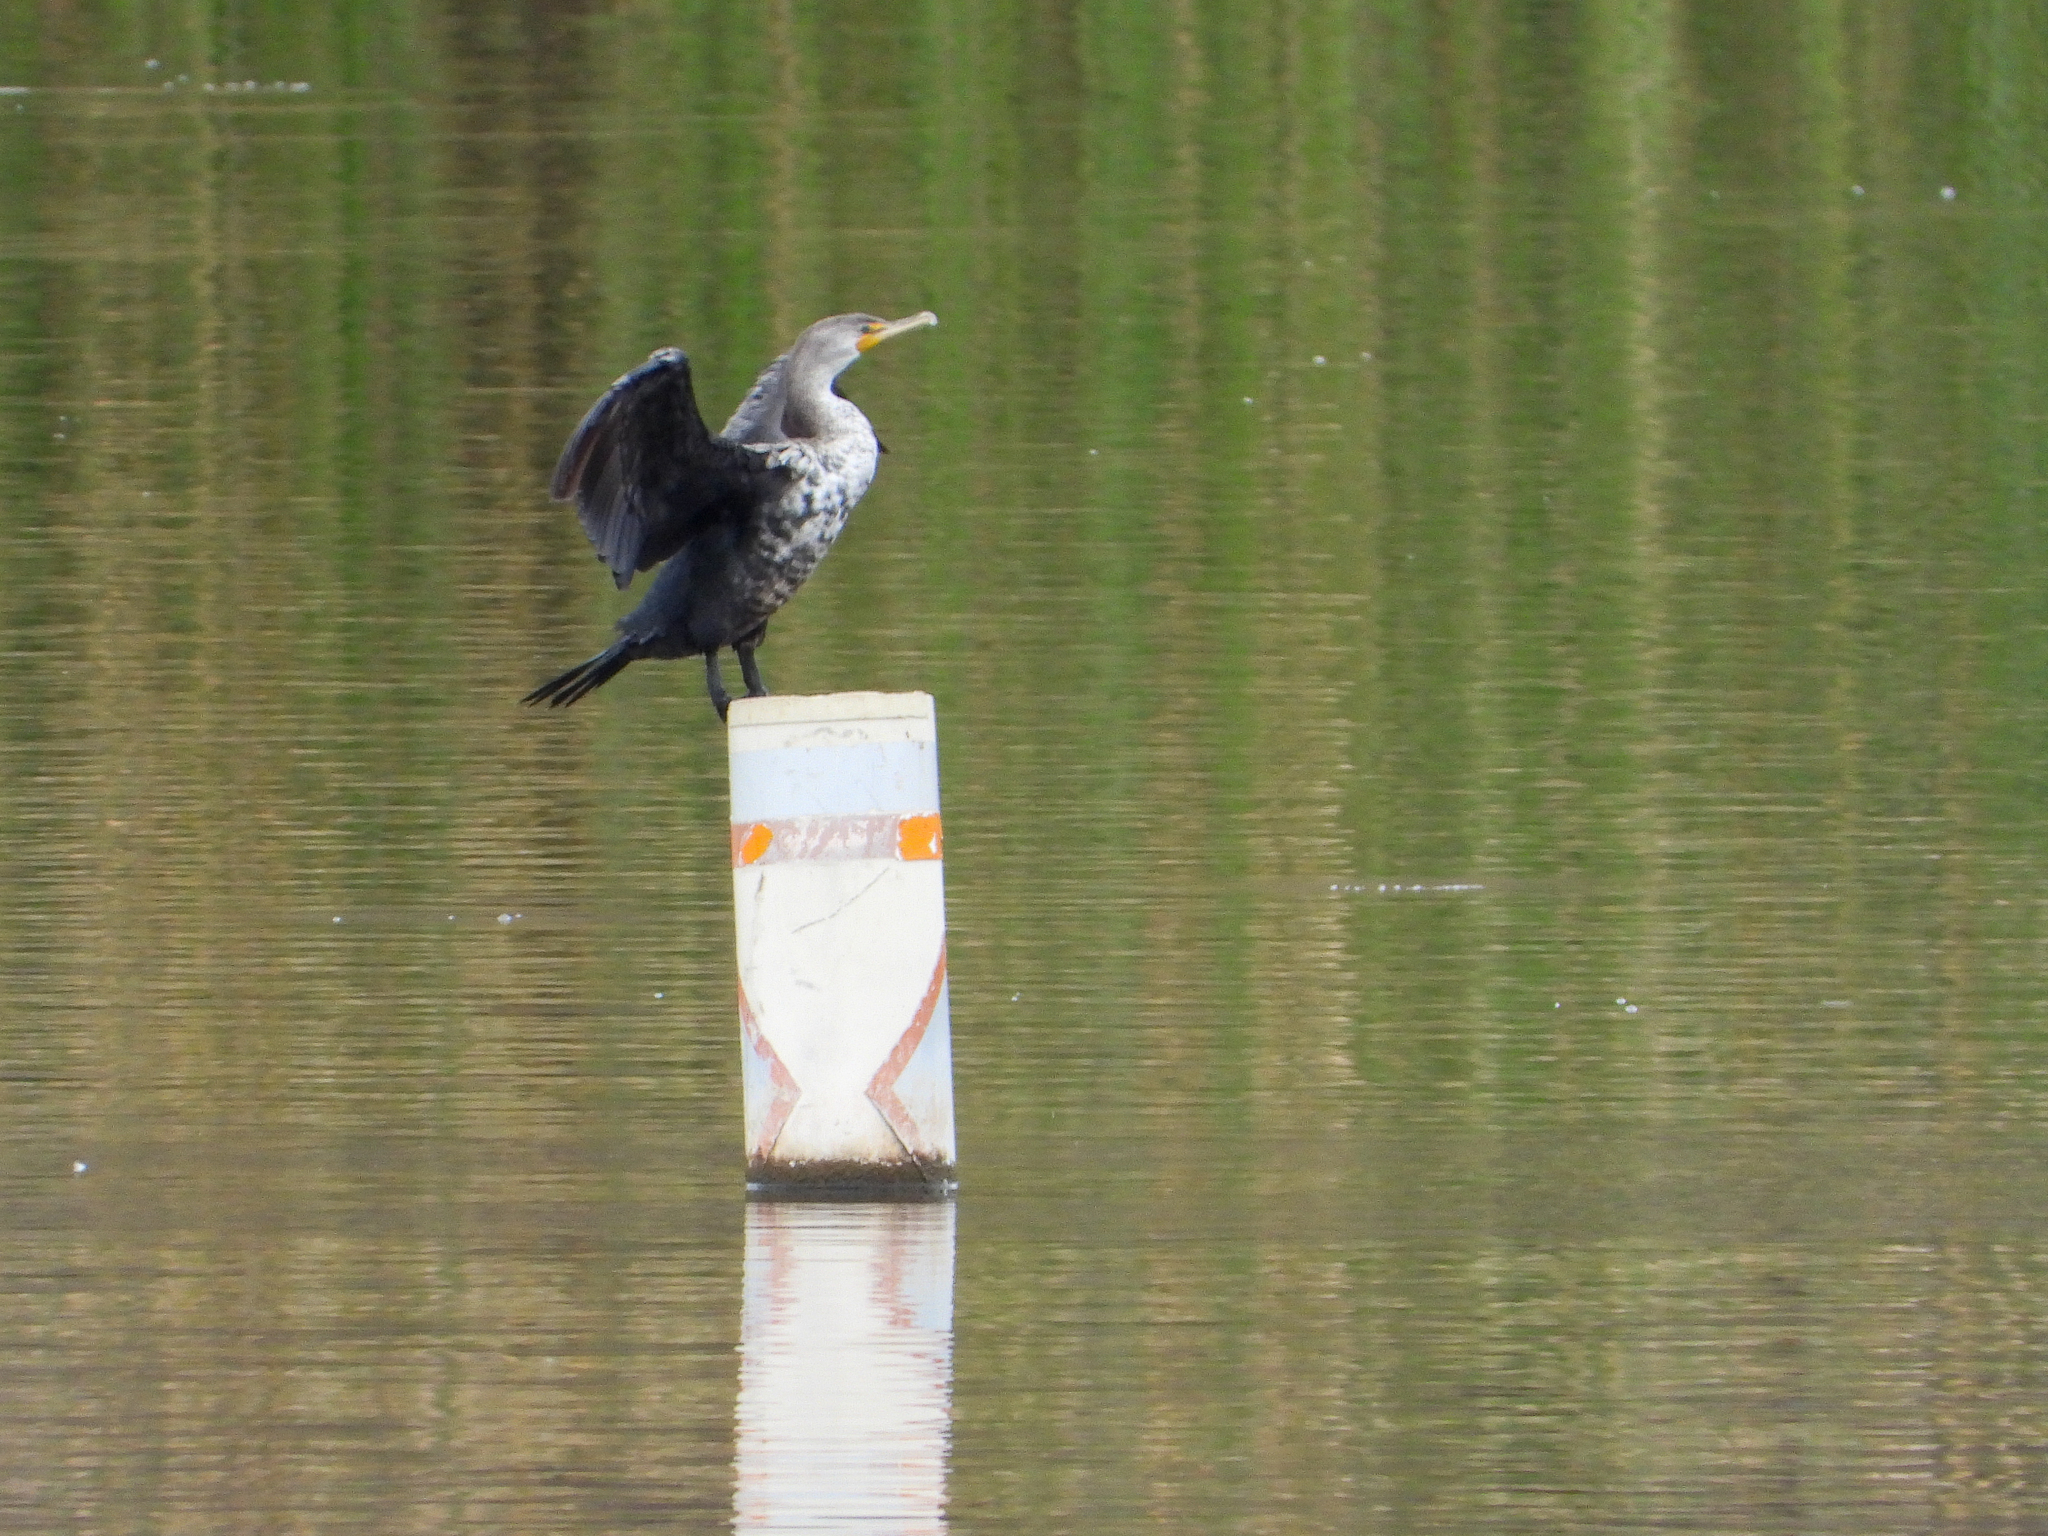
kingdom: Animalia
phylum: Chordata
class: Aves
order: Suliformes
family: Phalacrocoracidae
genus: Phalacrocorax
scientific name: Phalacrocorax auritus
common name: Double-crested cormorant
